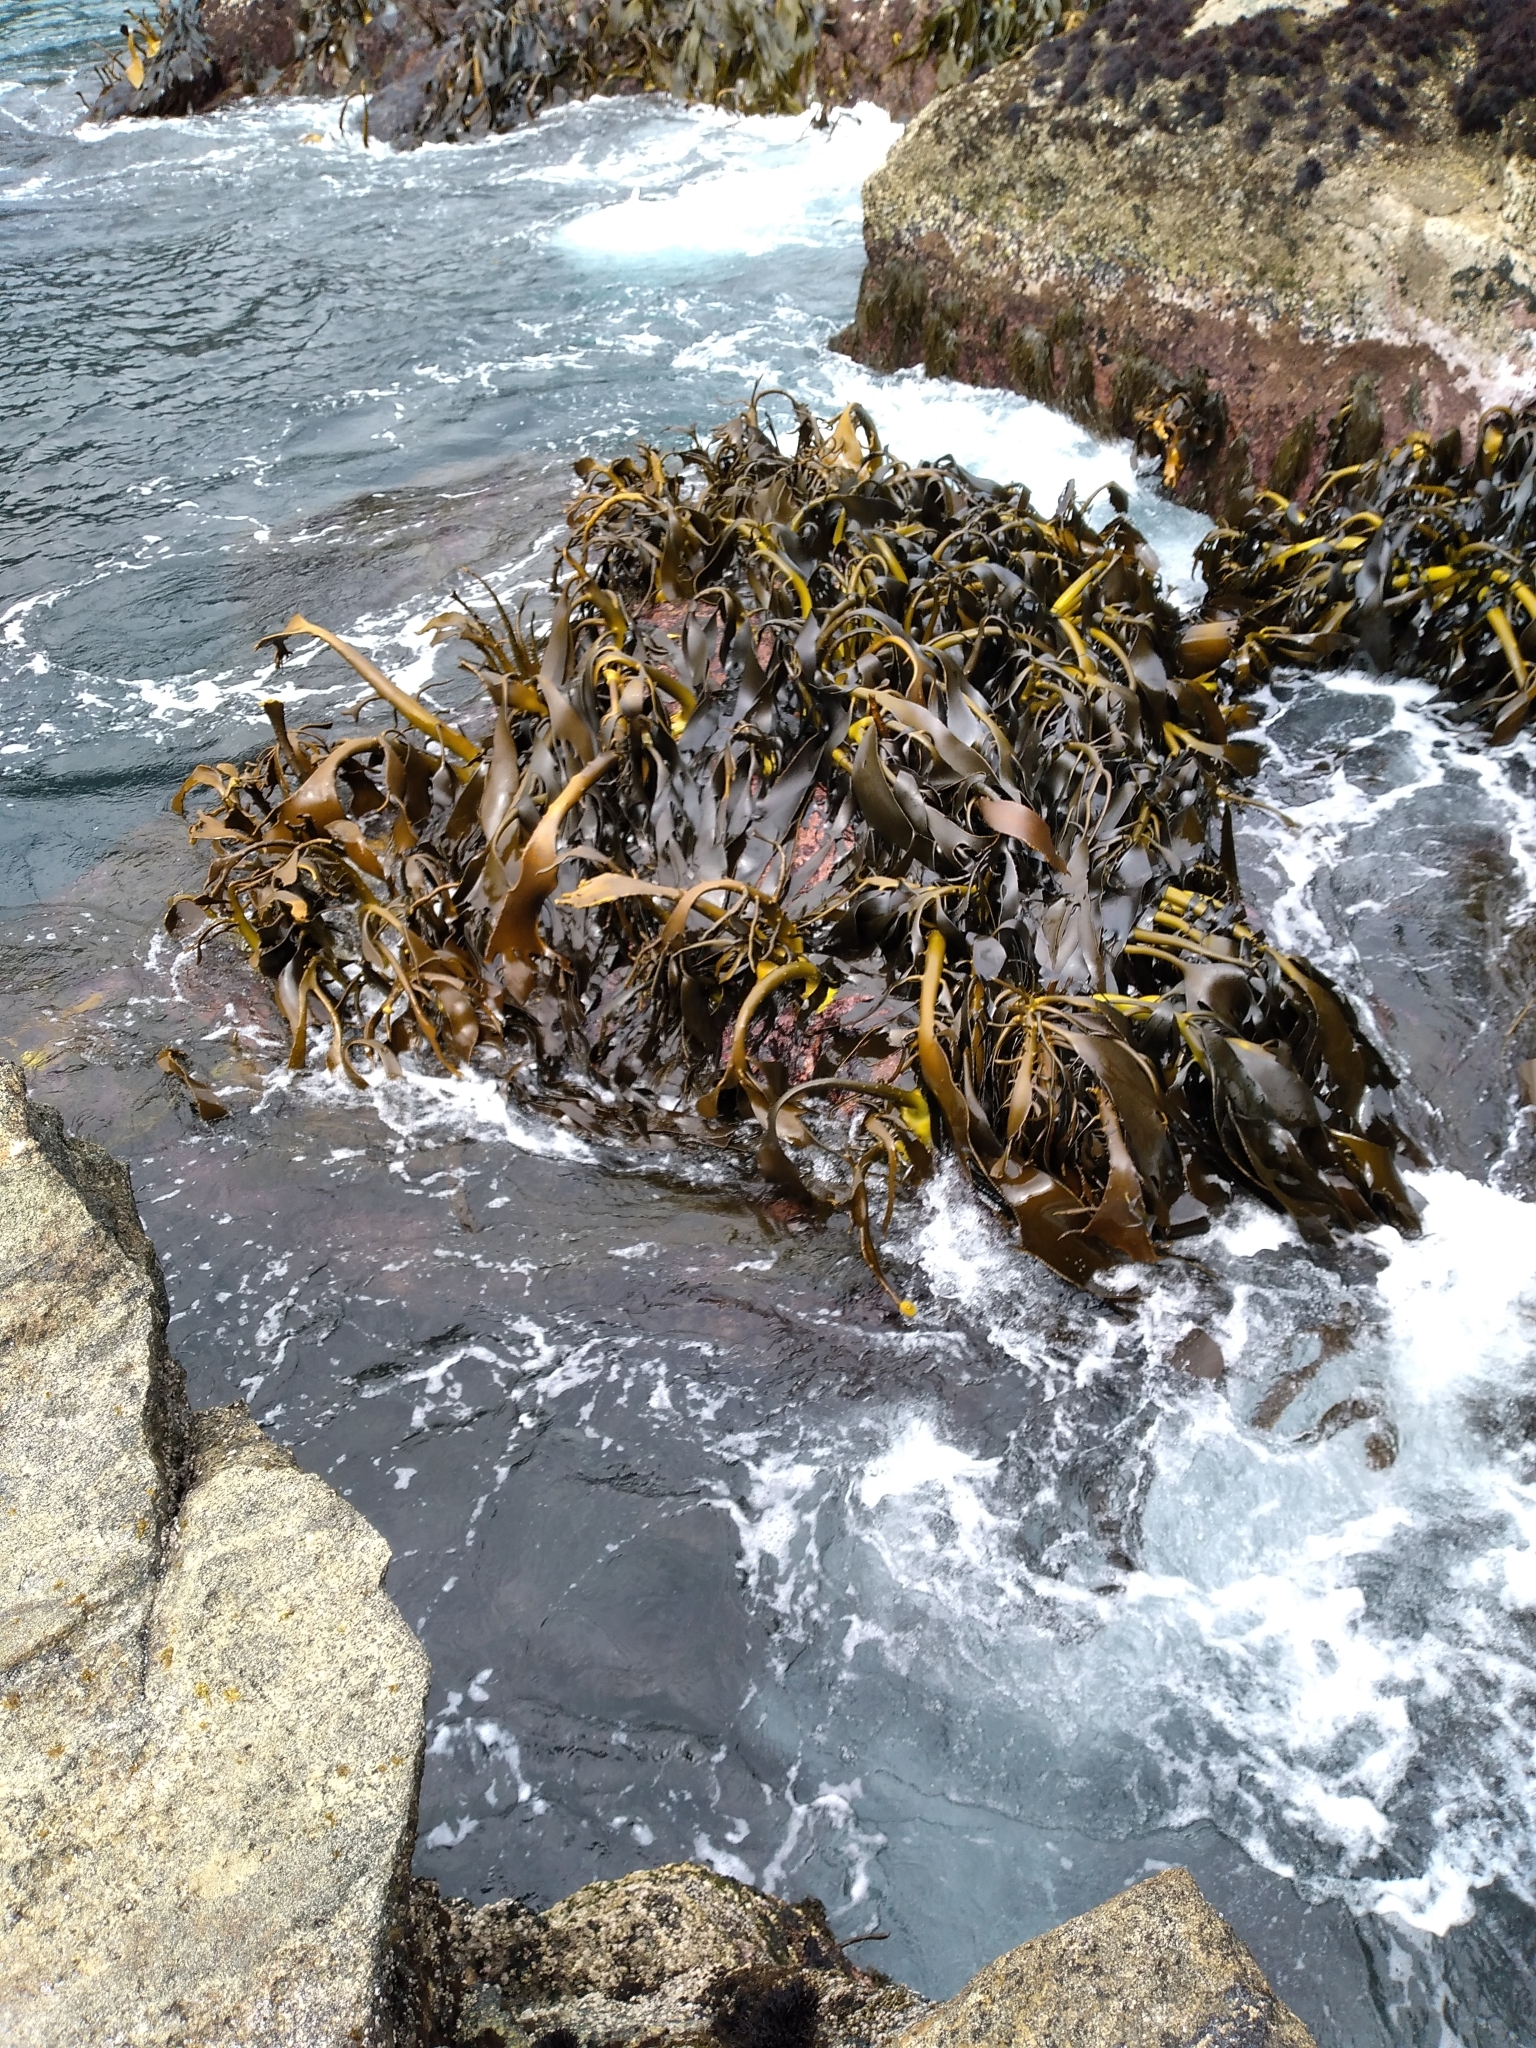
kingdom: Chromista
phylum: Ochrophyta
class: Phaeophyceae
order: Fucales
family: Durvillaeaceae
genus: Durvillaea
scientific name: Durvillaea willana
